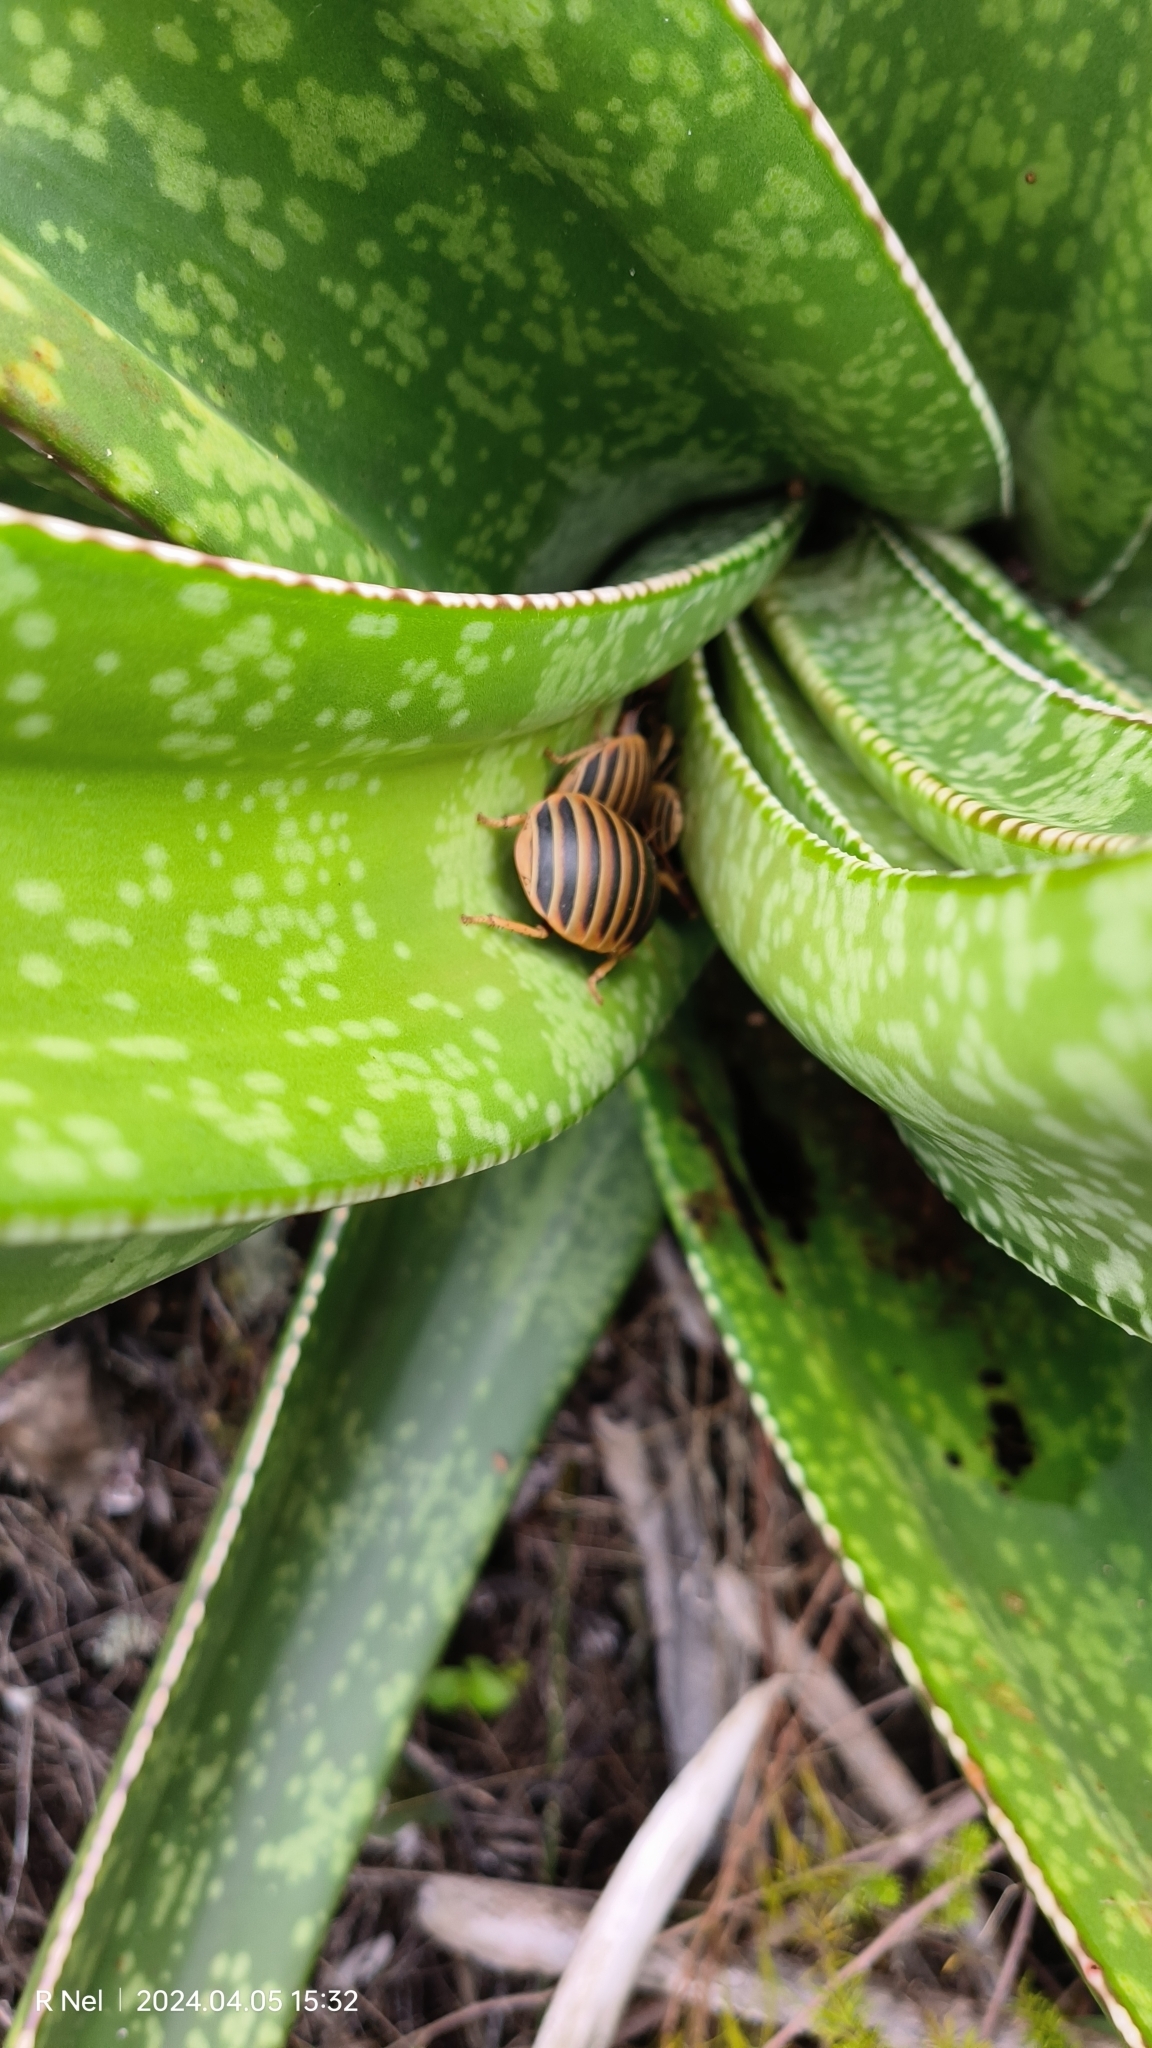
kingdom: Plantae
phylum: Tracheophyta
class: Liliopsida
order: Asparagales
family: Asphodelaceae
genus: Gasteria
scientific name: Gasteria acinacifolia
